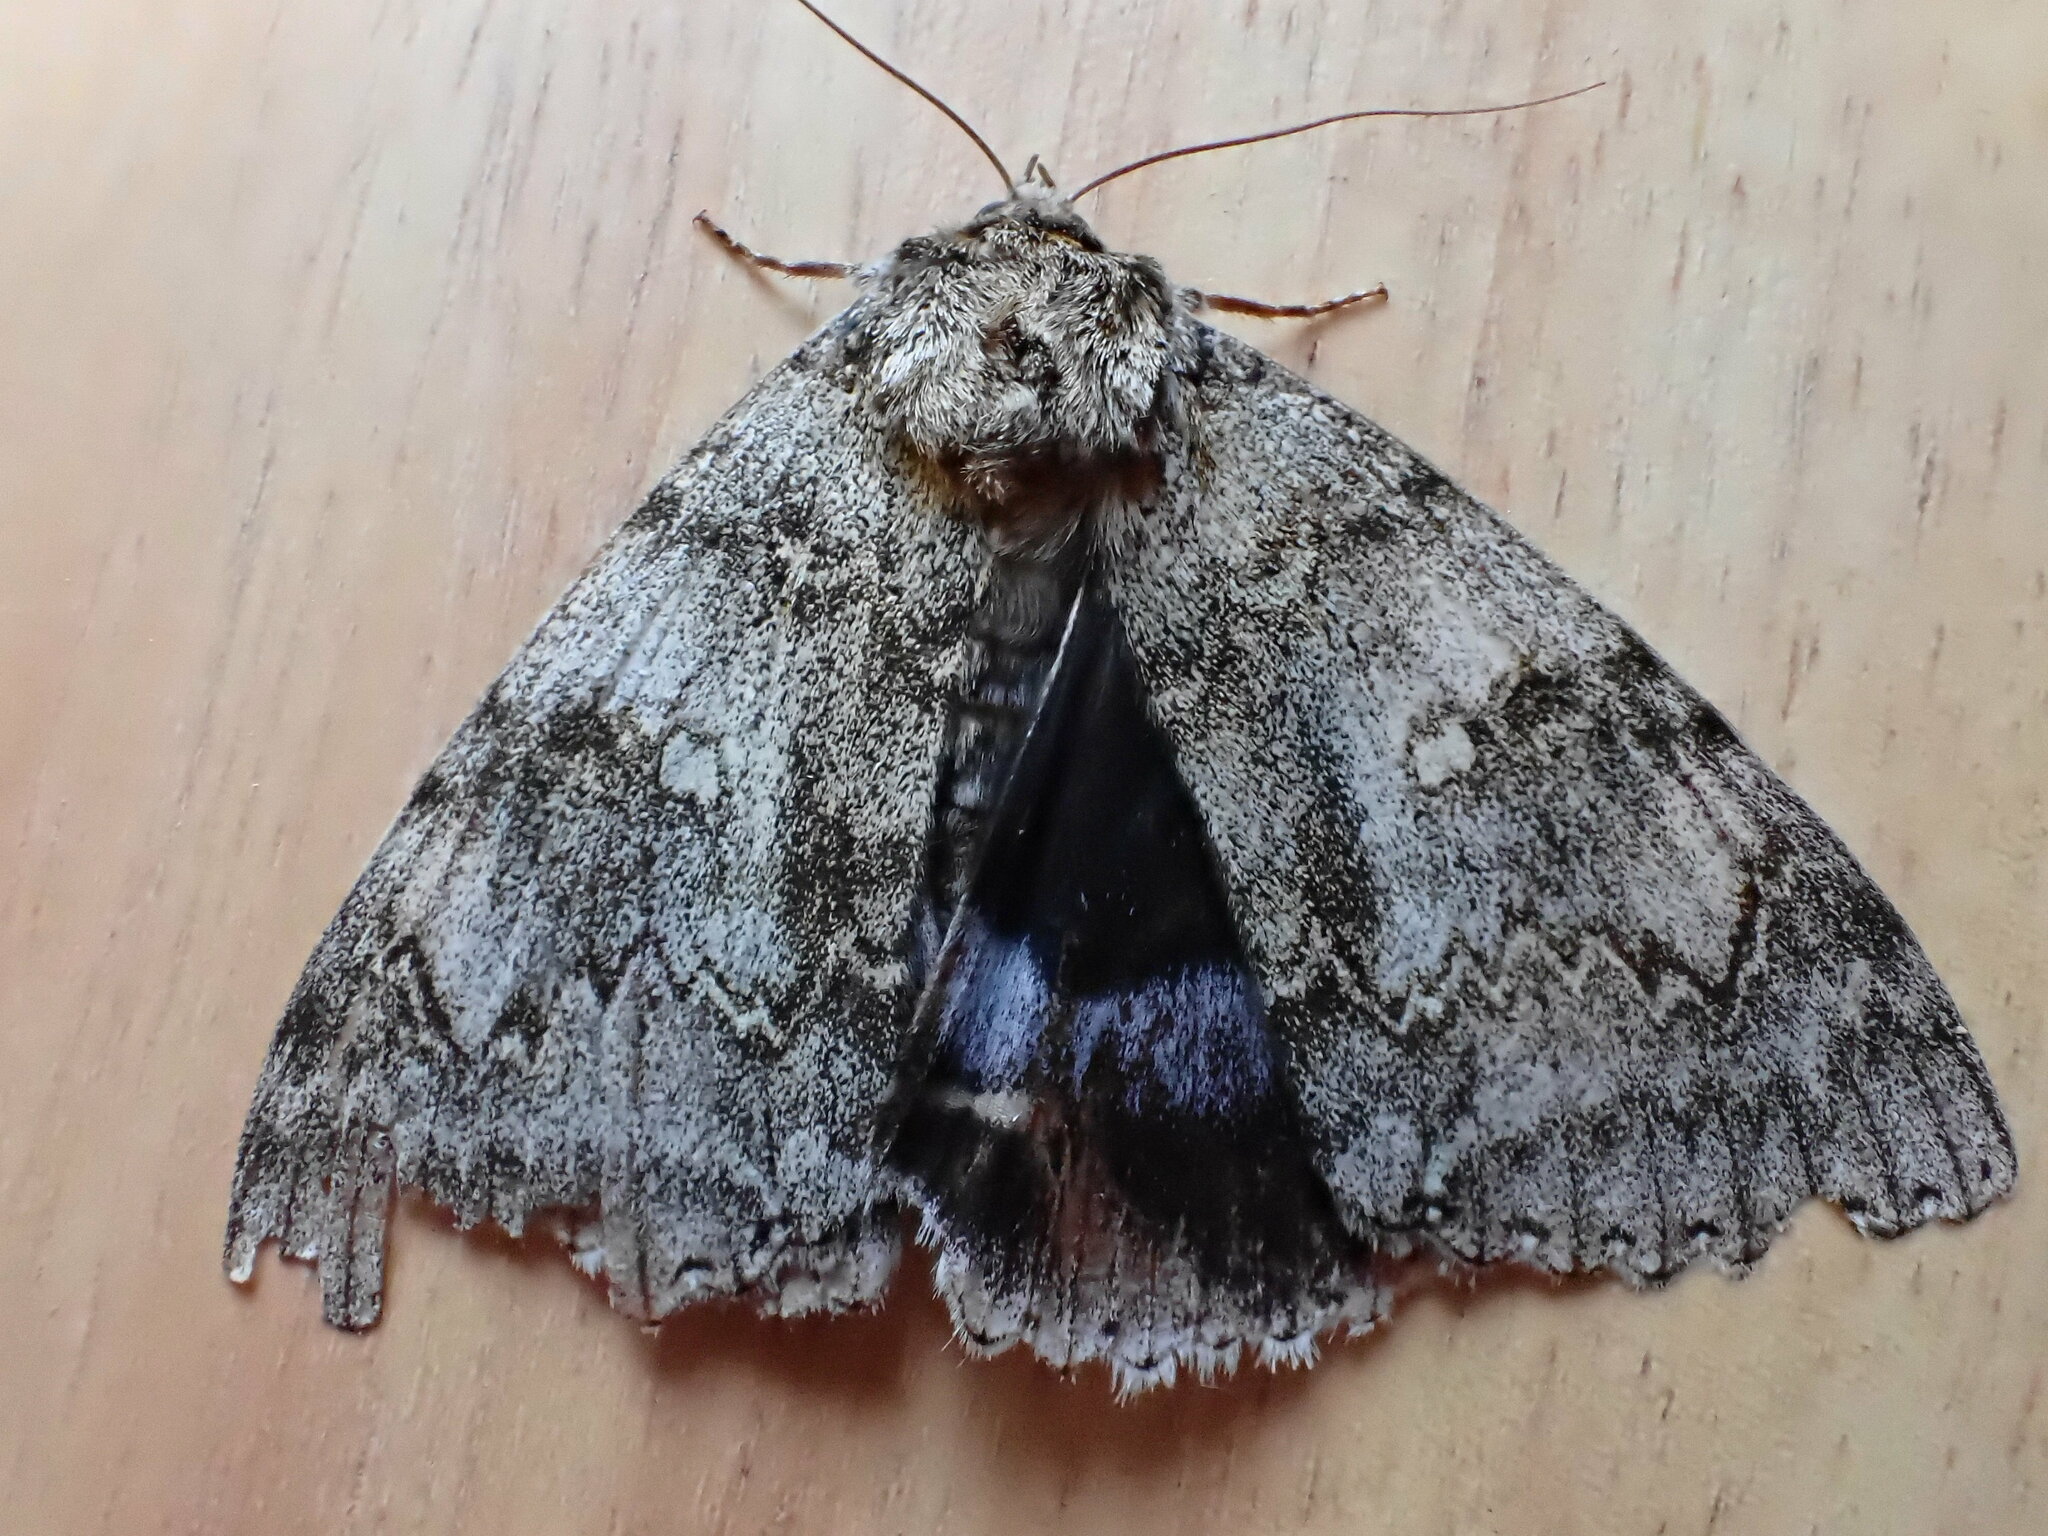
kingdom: Animalia
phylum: Arthropoda
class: Insecta
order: Lepidoptera
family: Erebidae
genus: Catocala
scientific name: Catocala fraxini
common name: Clifden nonpareil
